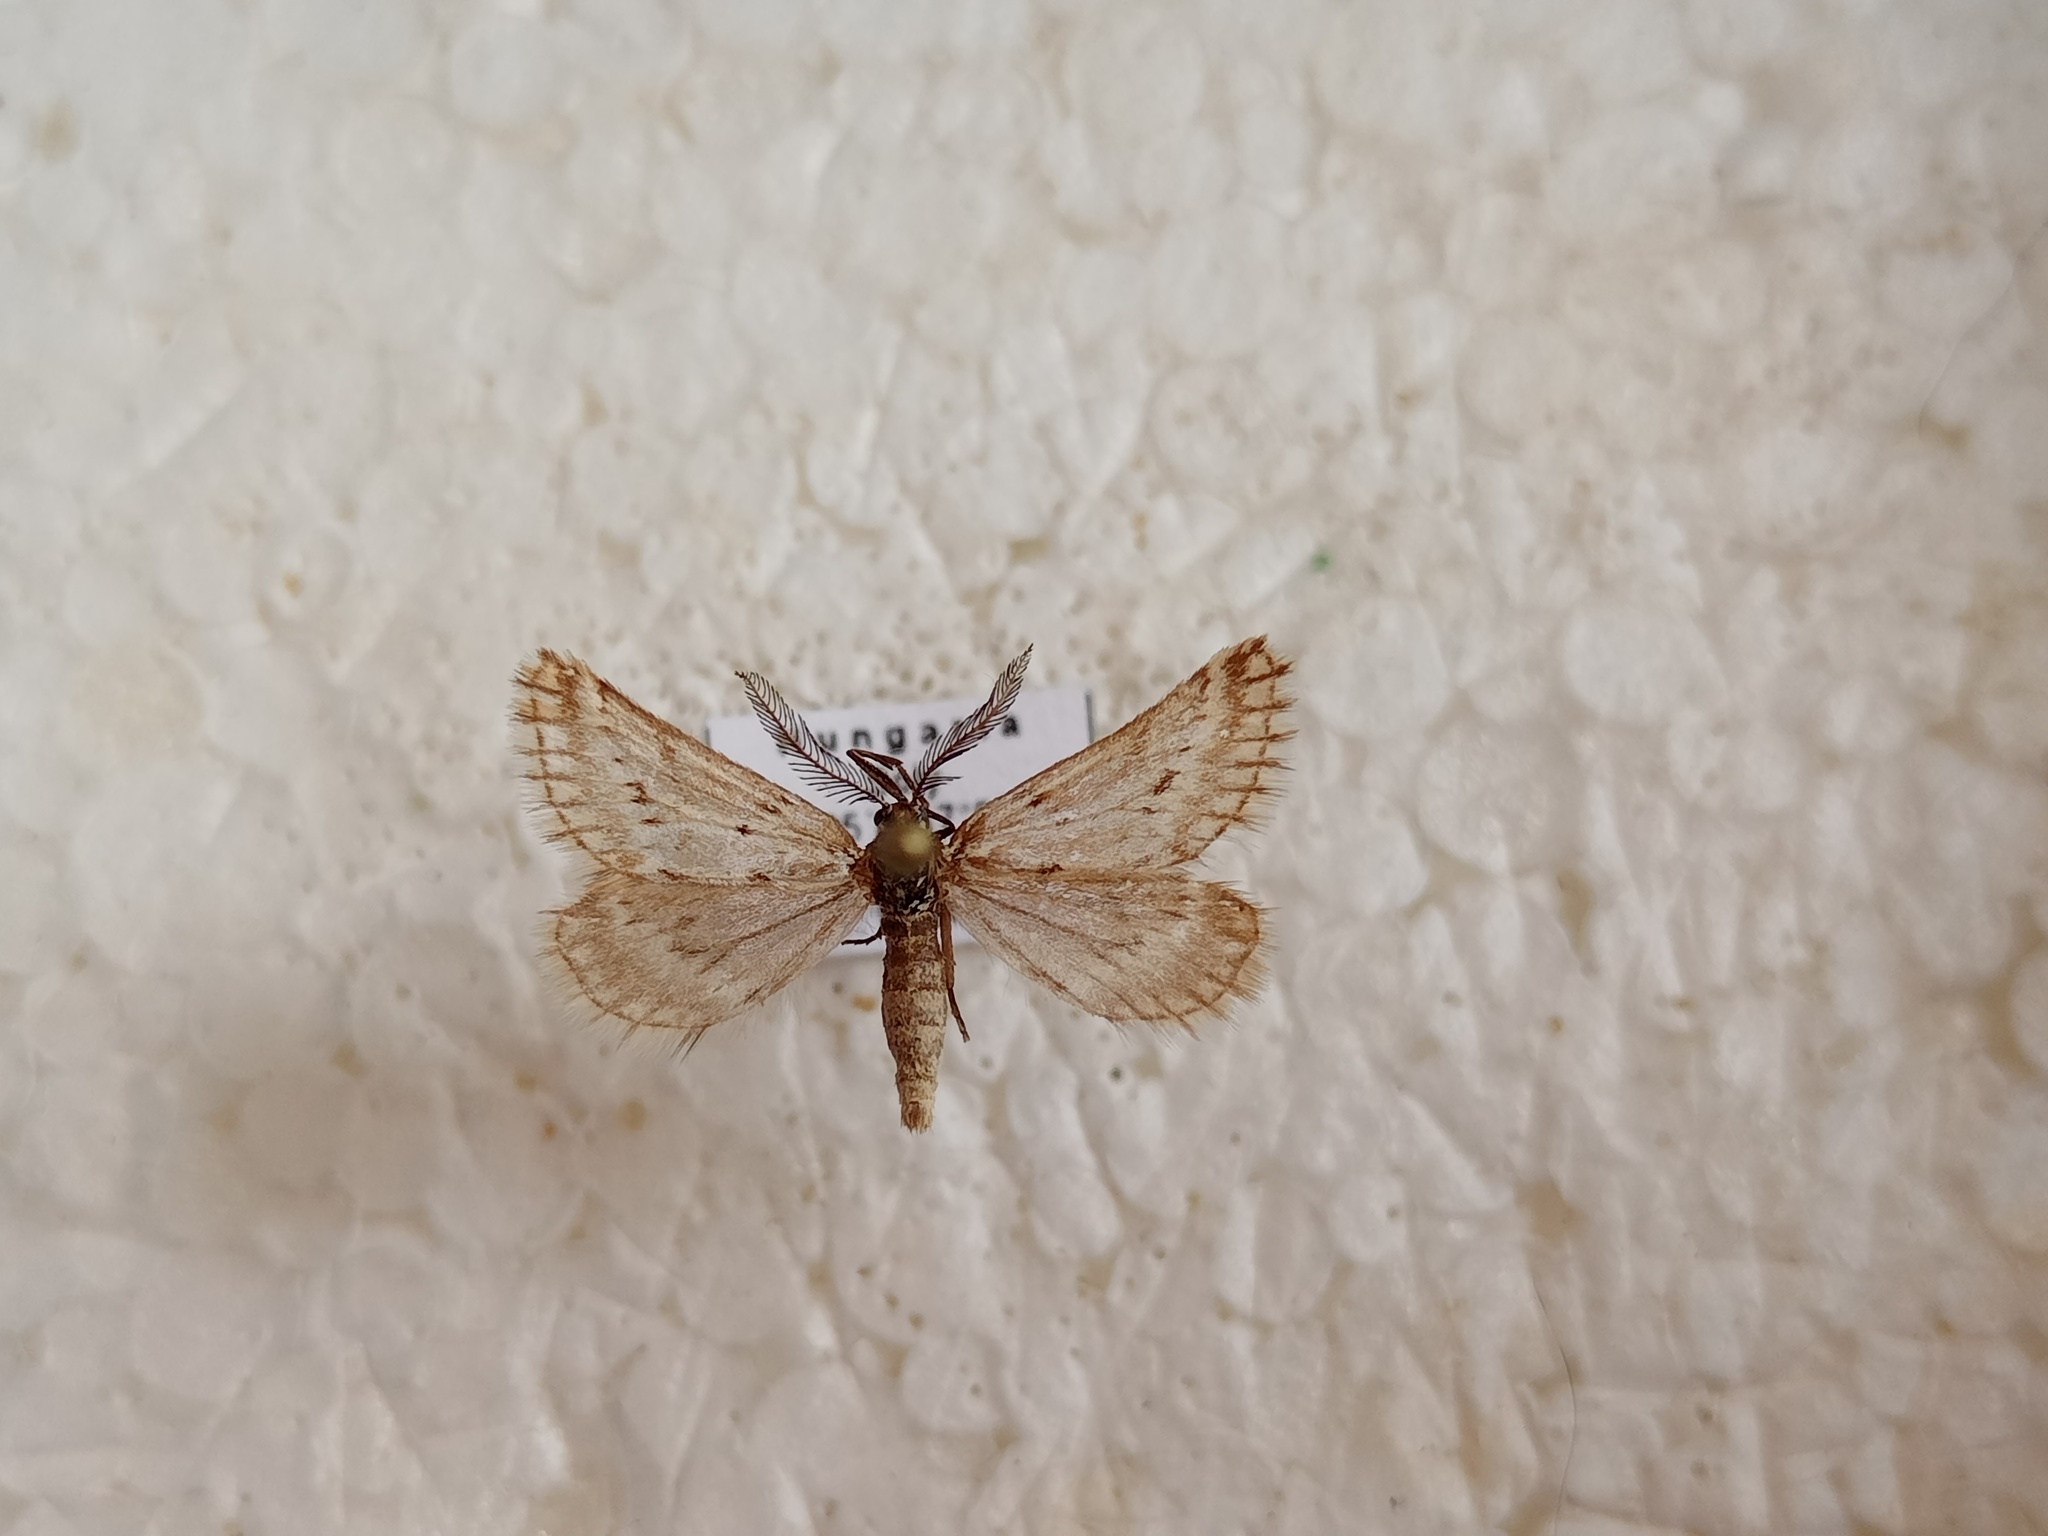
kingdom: Animalia
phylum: Arthropoda
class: Insecta
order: Lepidoptera
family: Geometridae
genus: Phyllometra
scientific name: Phyllometra culminaria
